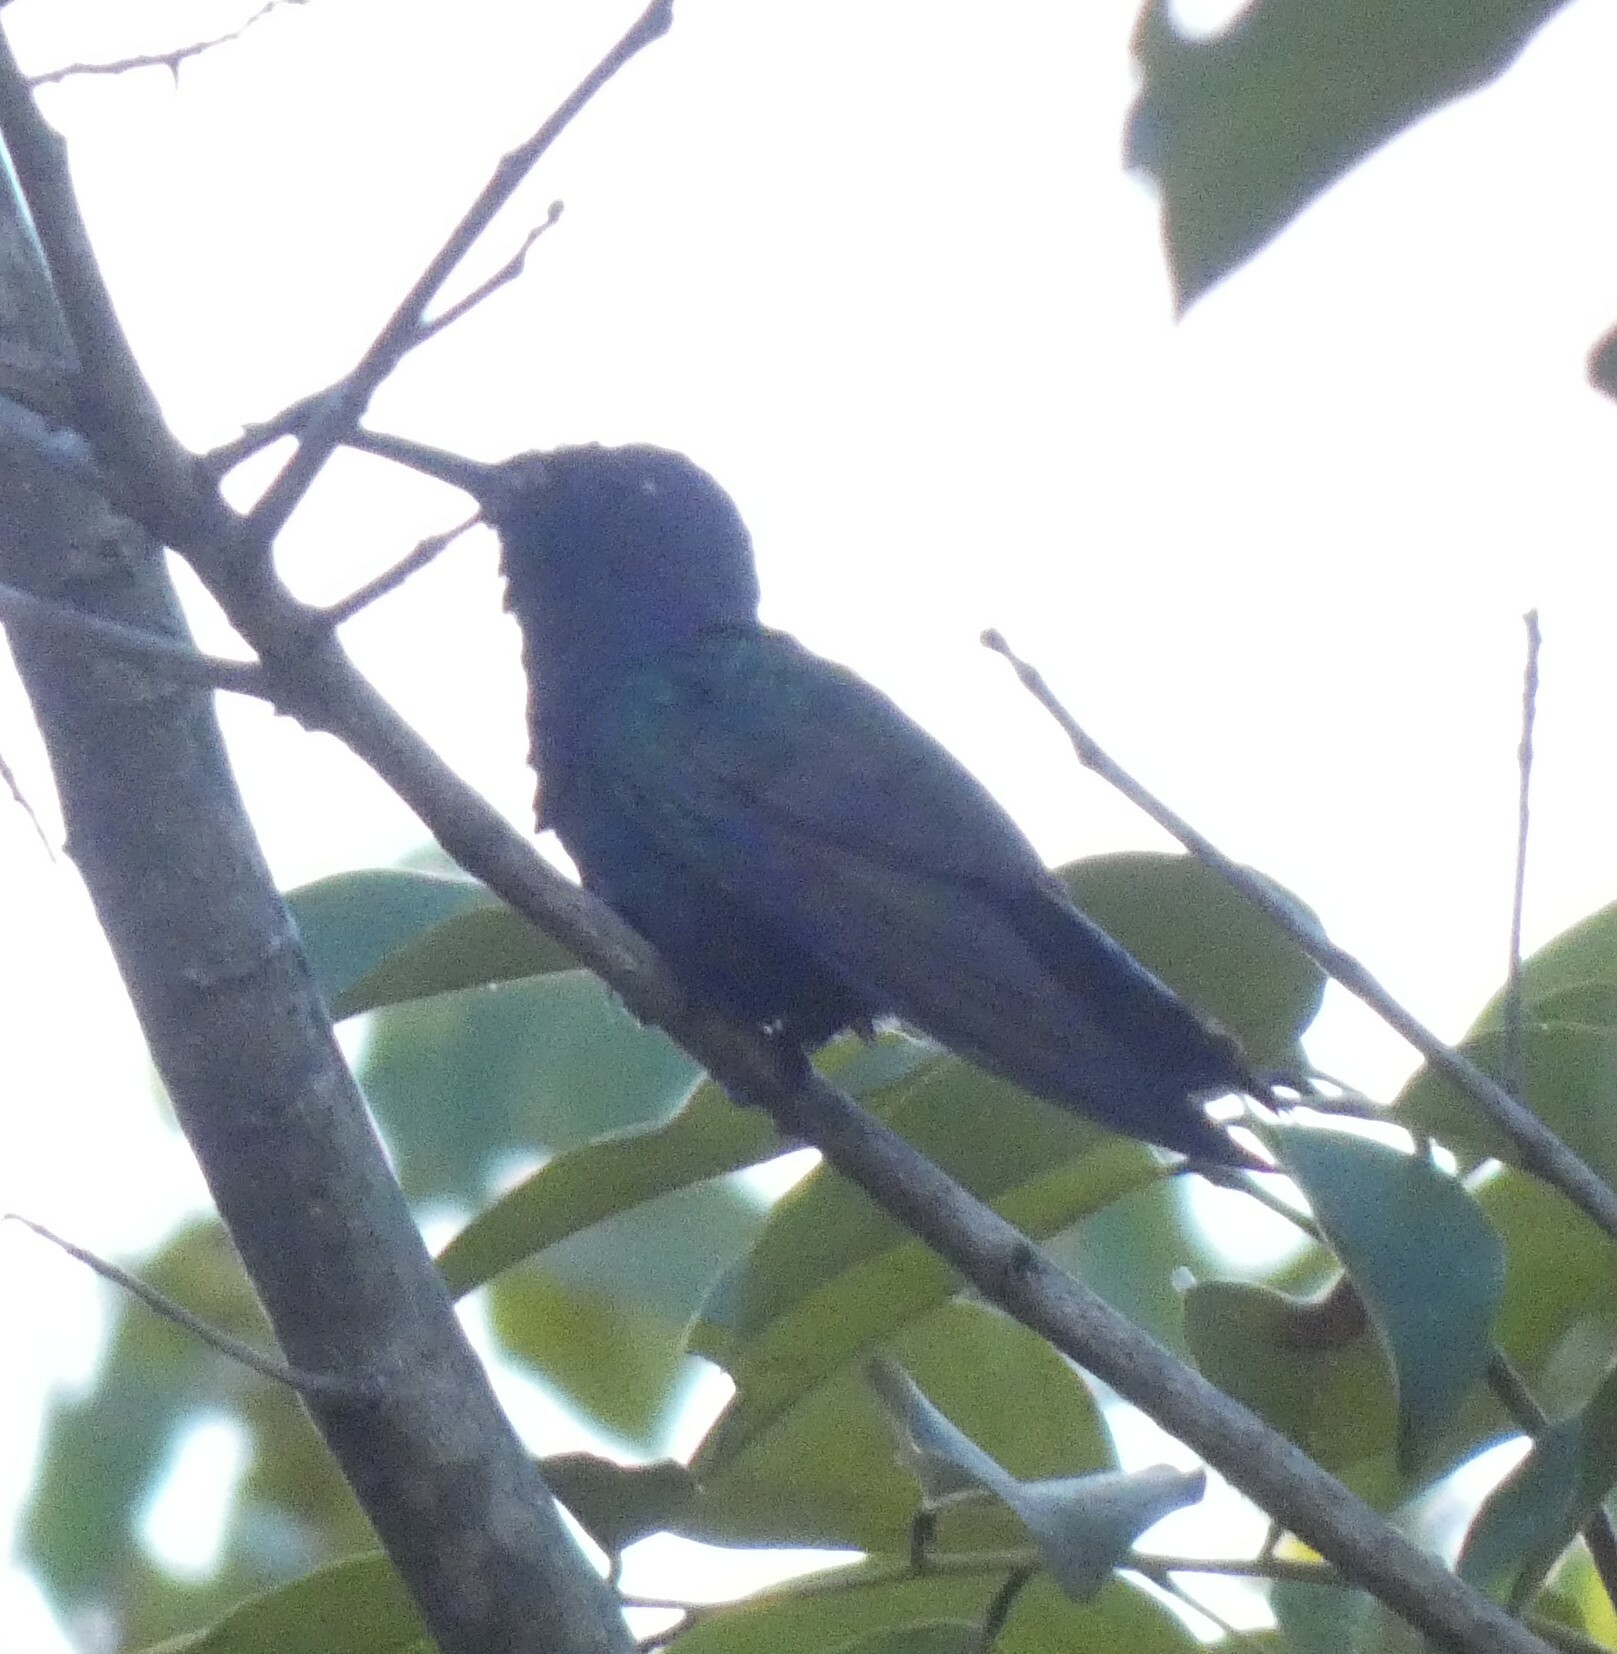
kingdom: Animalia
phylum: Chordata
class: Aves
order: Apodiformes
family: Trochilidae
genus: Eupetomena
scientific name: Eupetomena macroura
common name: Swallow-tailed hummingbird
